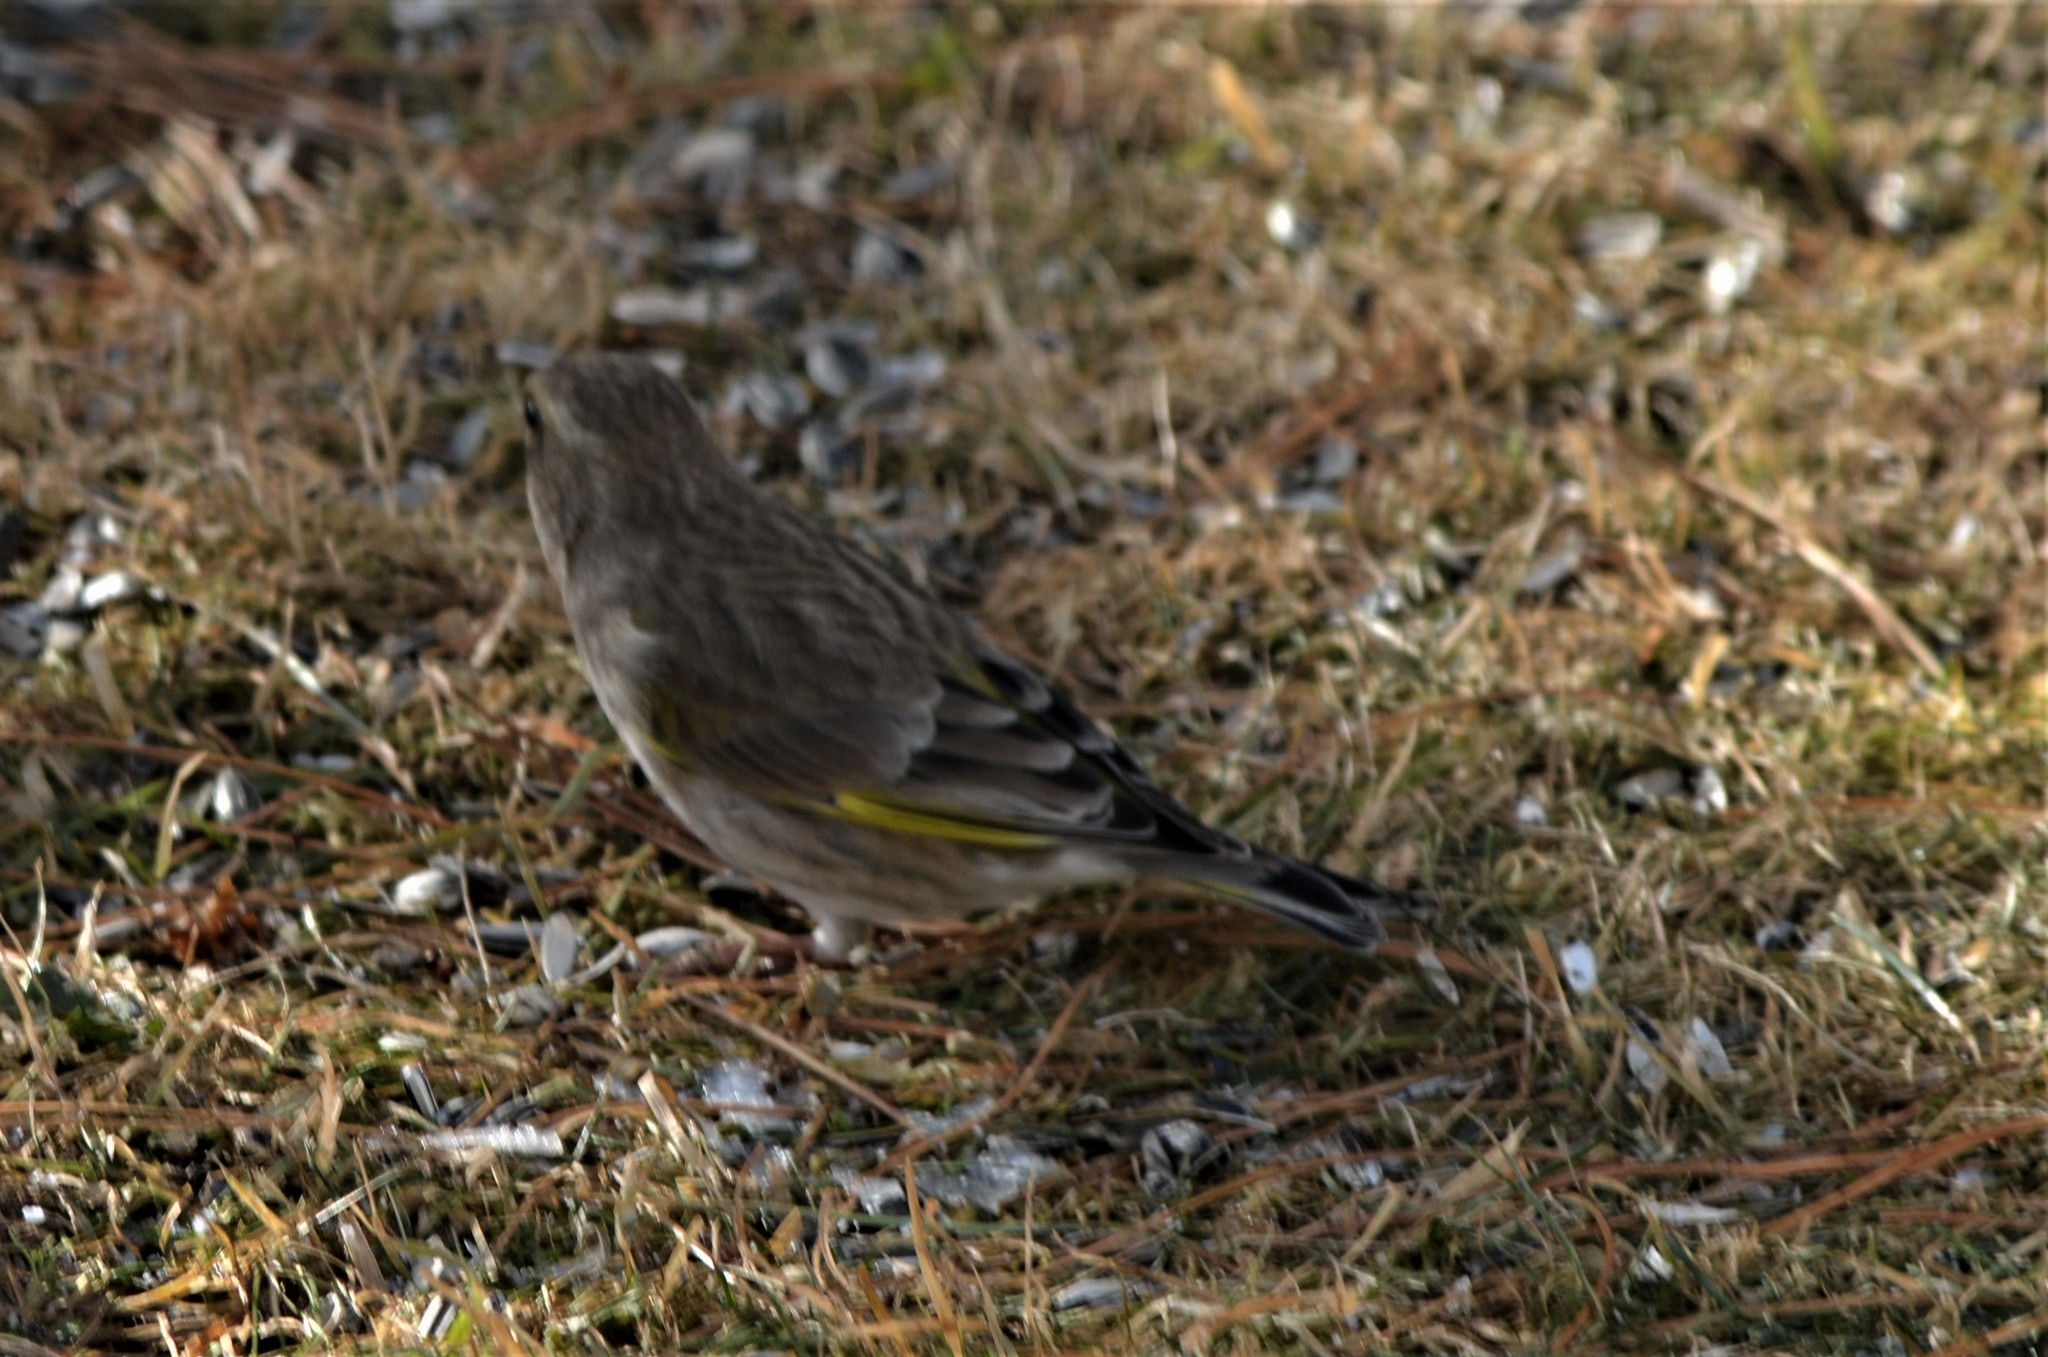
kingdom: Plantae
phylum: Tracheophyta
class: Liliopsida
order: Poales
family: Poaceae
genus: Chloris
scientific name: Chloris chloris
